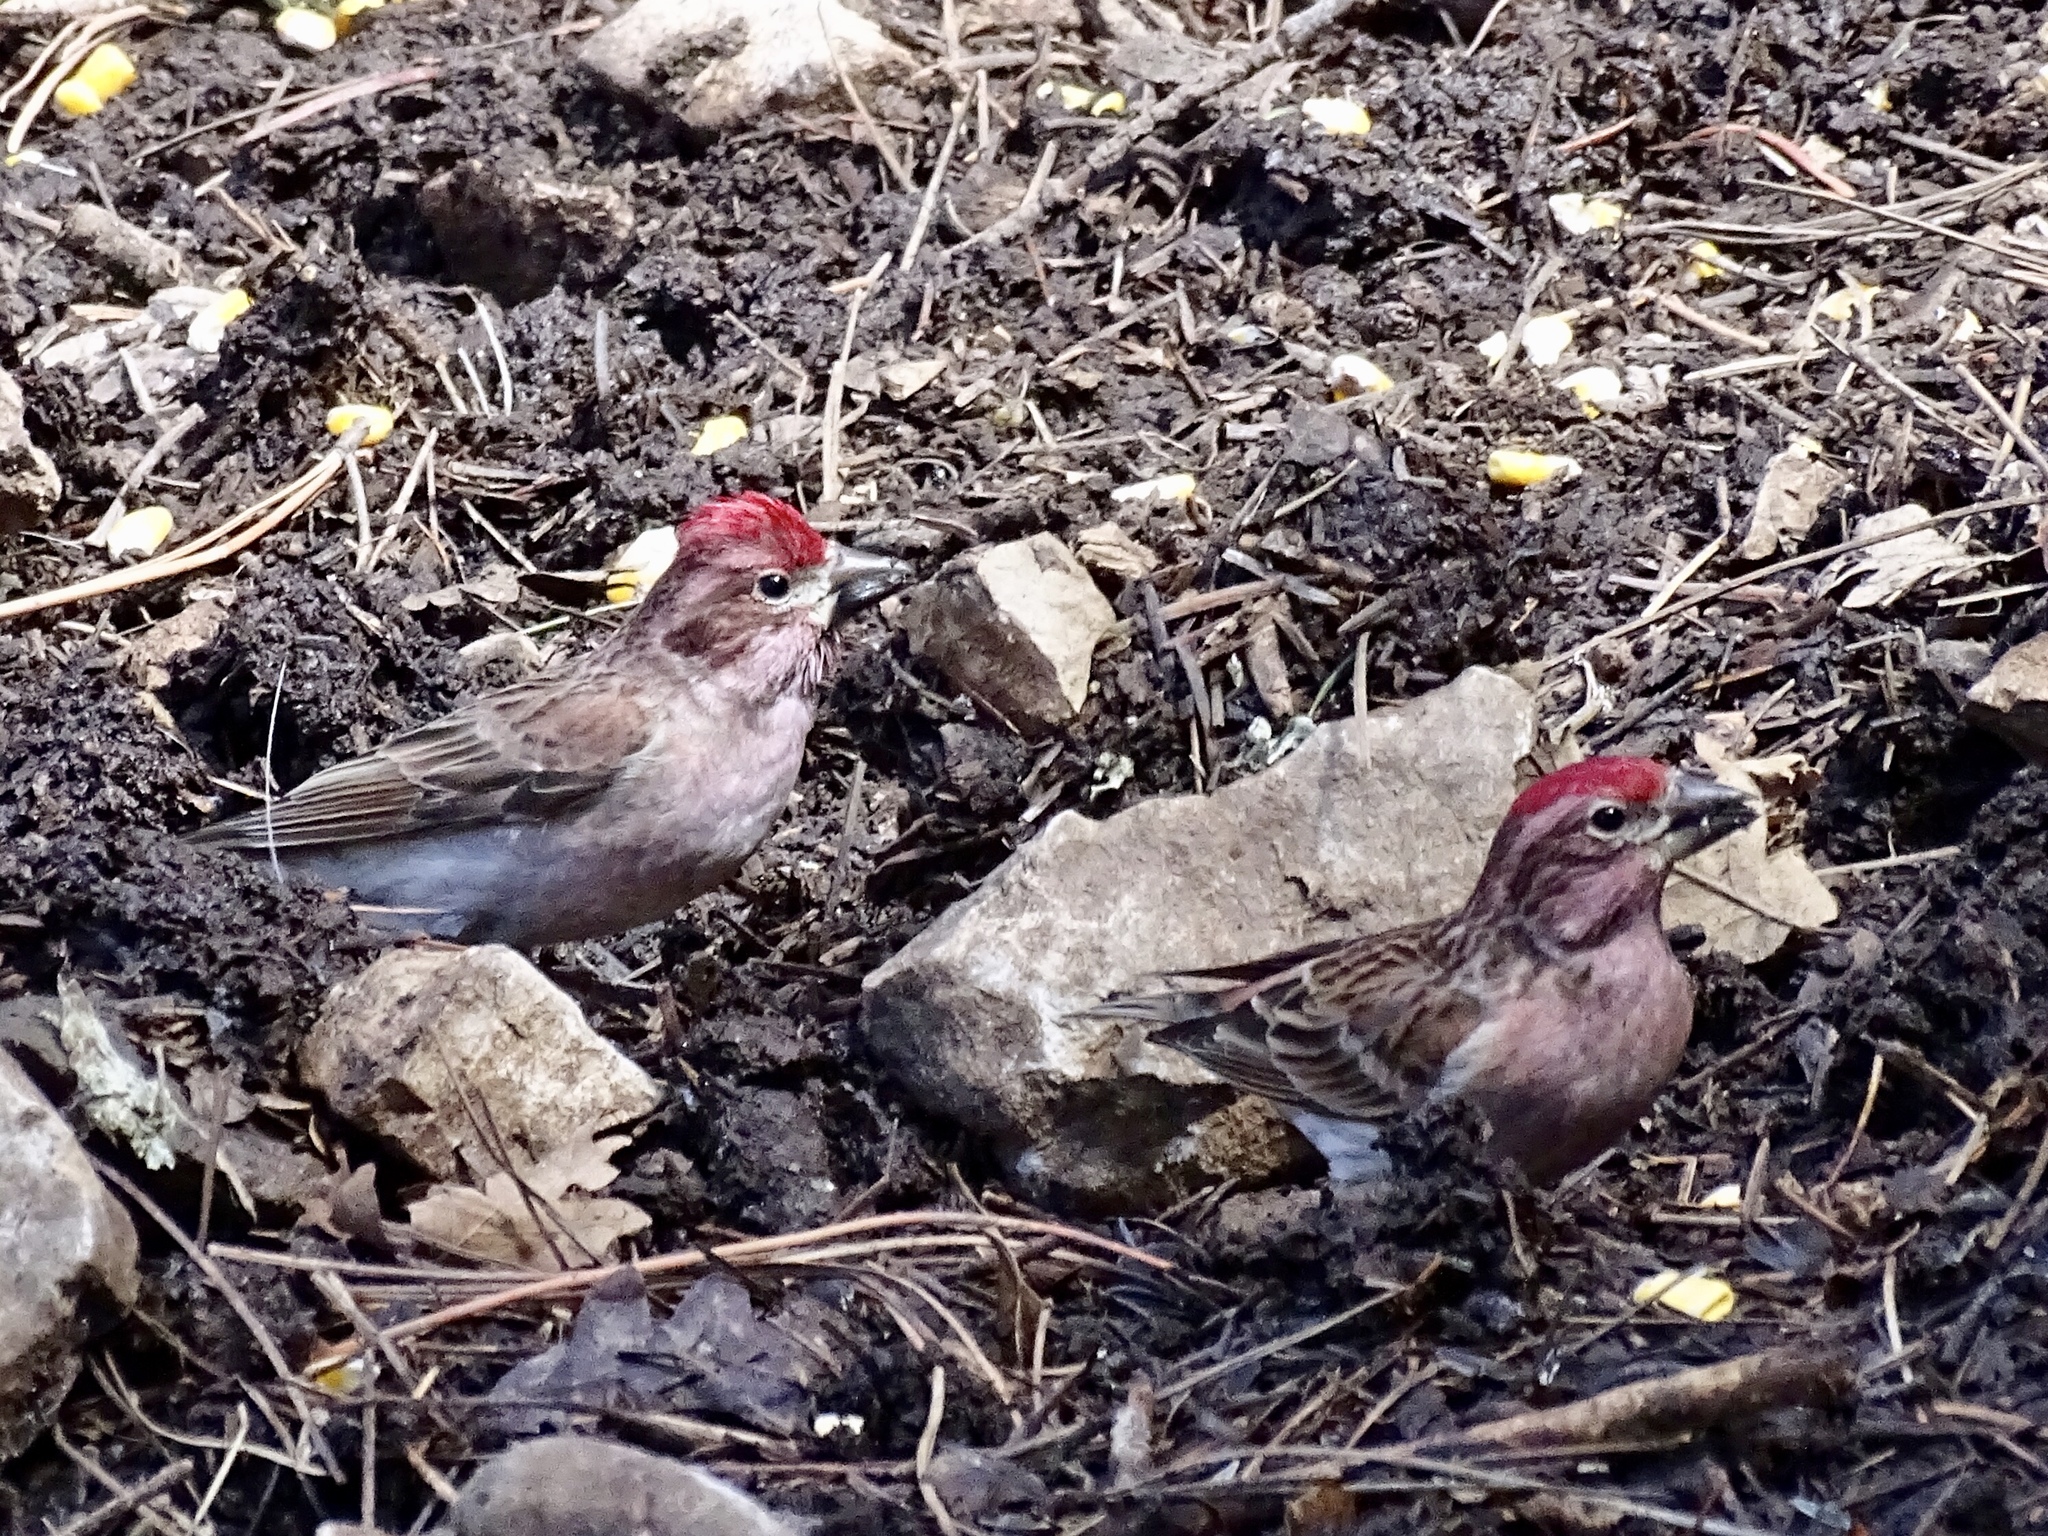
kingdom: Animalia
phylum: Chordata
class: Aves
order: Passeriformes
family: Fringillidae
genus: Haemorhous
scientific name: Haemorhous cassinii
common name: Cassin's finch
